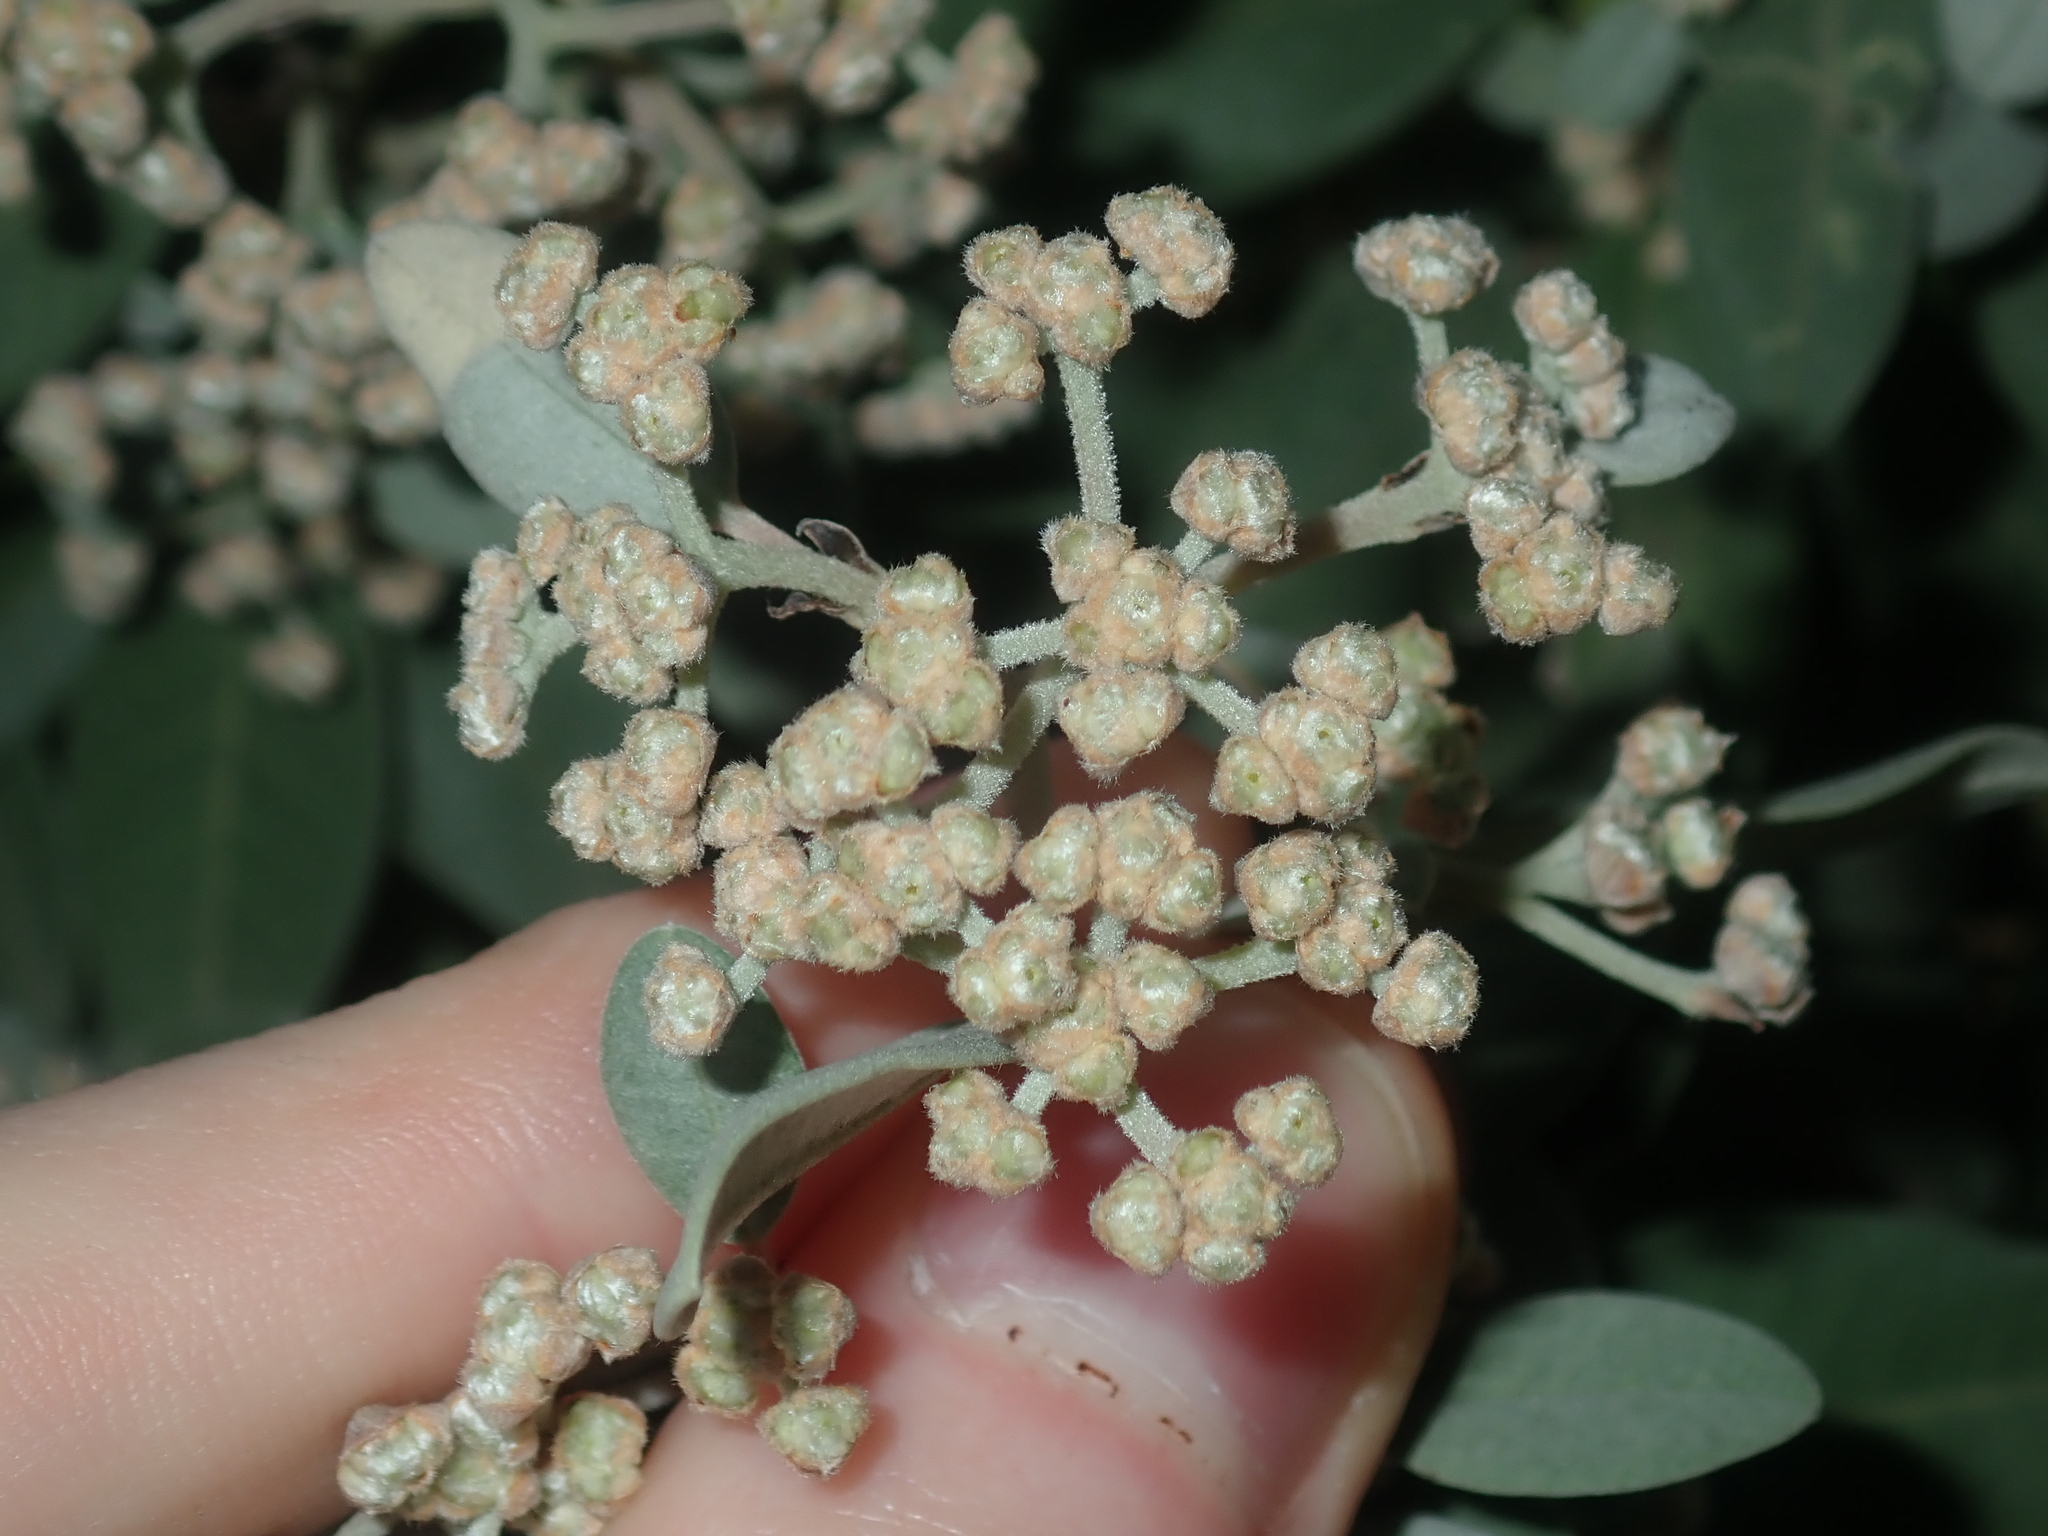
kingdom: Plantae
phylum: Tracheophyta
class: Magnoliopsida
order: Rosales
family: Rhamnaceae
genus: Spyridium
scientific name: Spyridium globulosum
